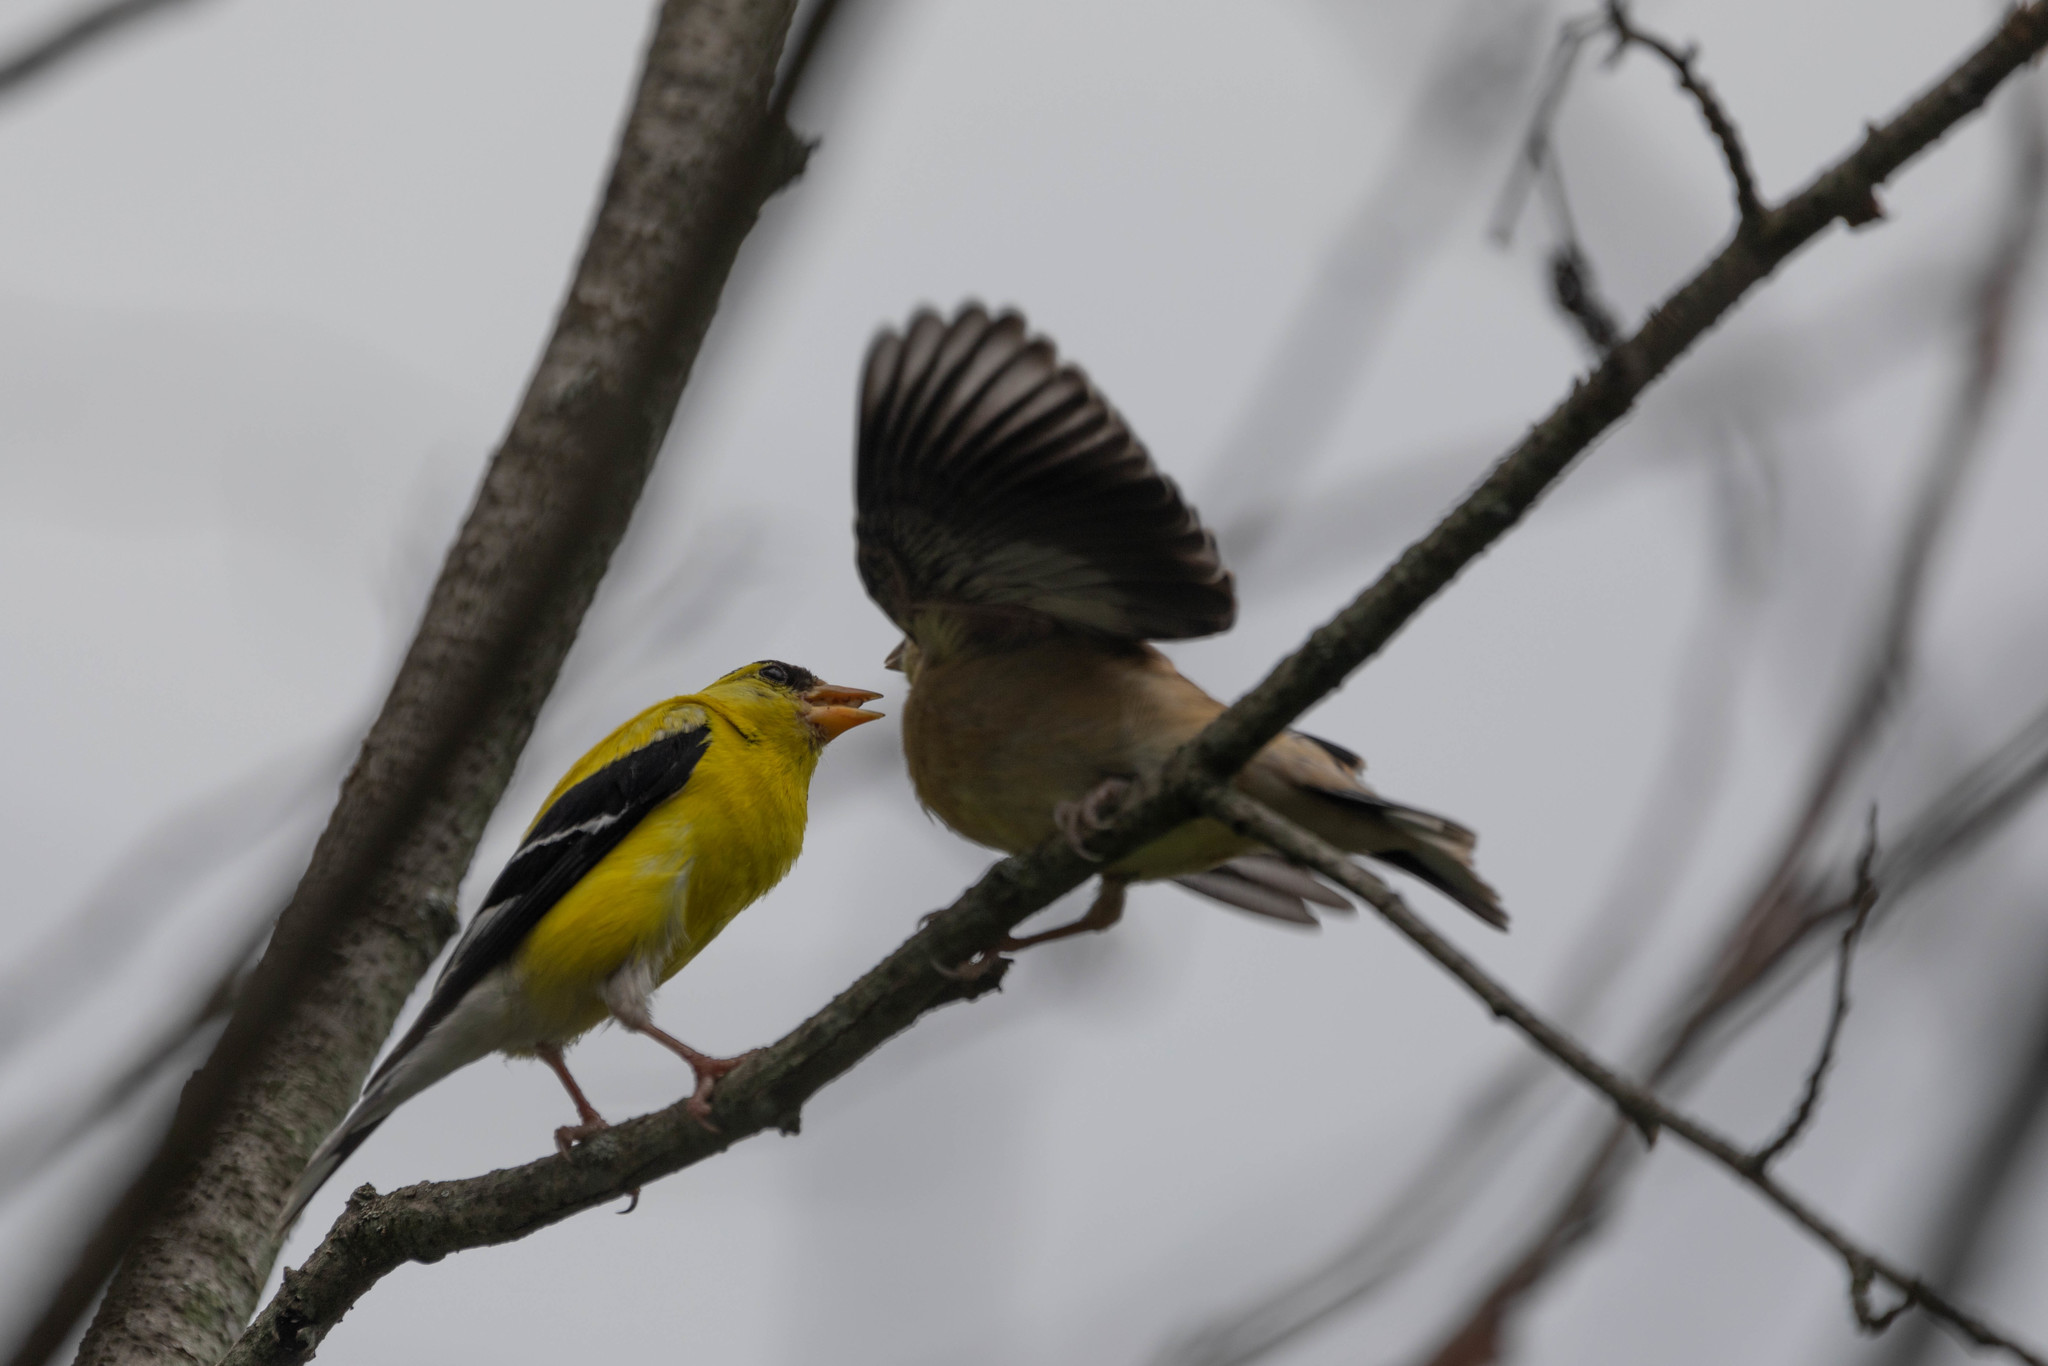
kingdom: Animalia
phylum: Chordata
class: Aves
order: Passeriformes
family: Fringillidae
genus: Spinus
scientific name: Spinus tristis
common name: American goldfinch
